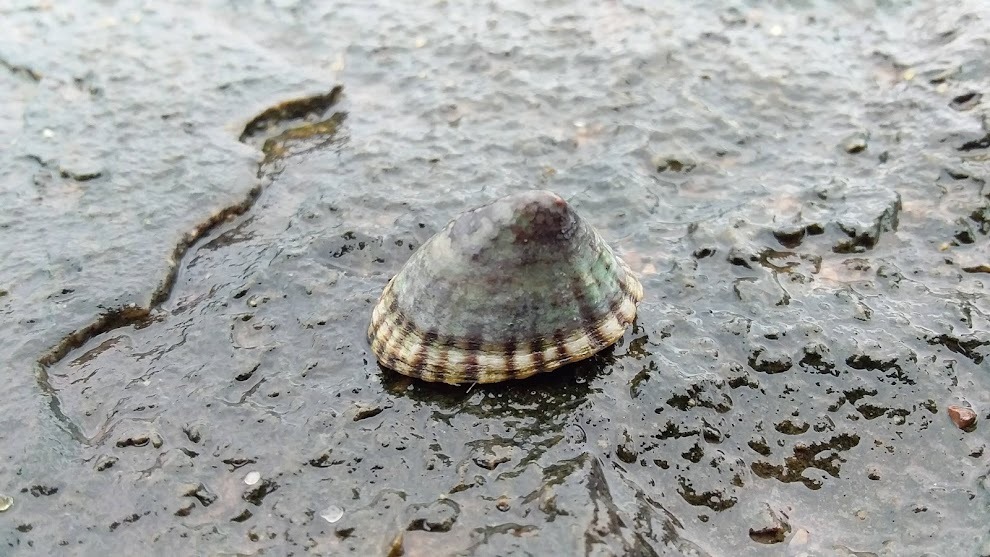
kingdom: Animalia
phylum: Mollusca
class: Gastropoda
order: Siphonariida
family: Siphonariidae
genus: Siphonaria
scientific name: Siphonaria lessonii
